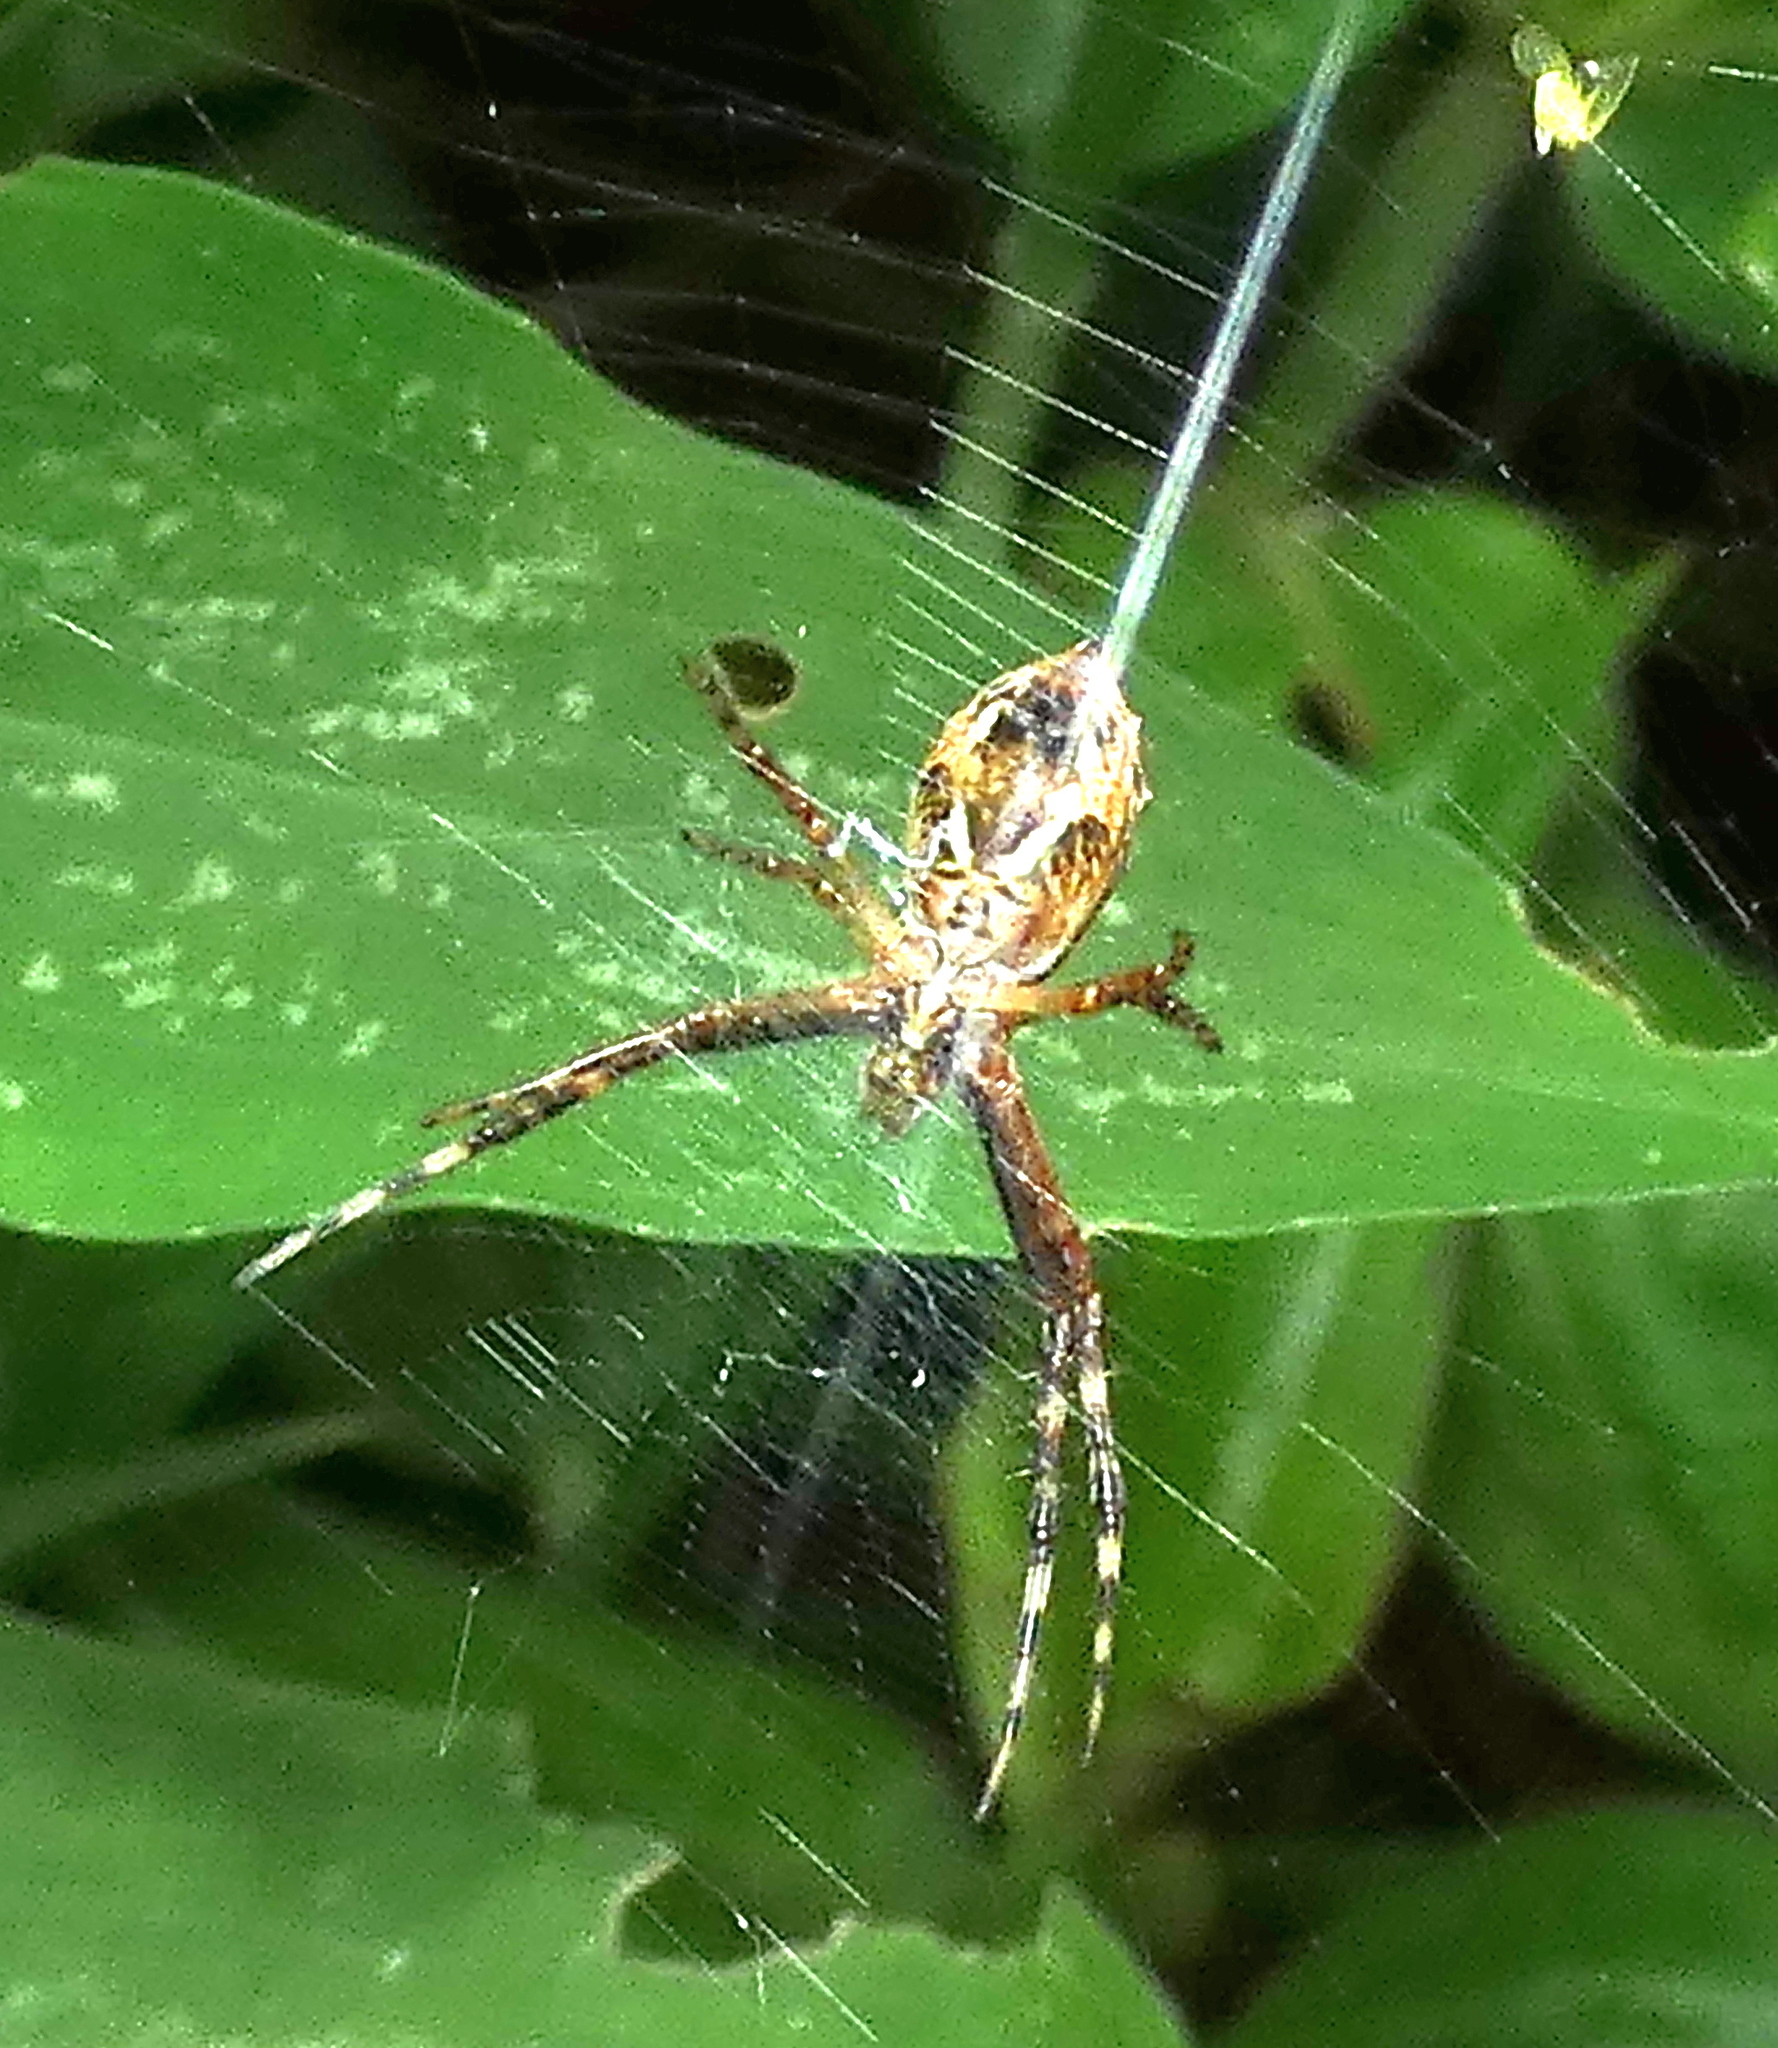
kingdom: Animalia
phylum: Arthropoda
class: Arachnida
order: Araneae
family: Araneidae
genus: Argiope
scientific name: Argiope argentata
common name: Orb weavers
